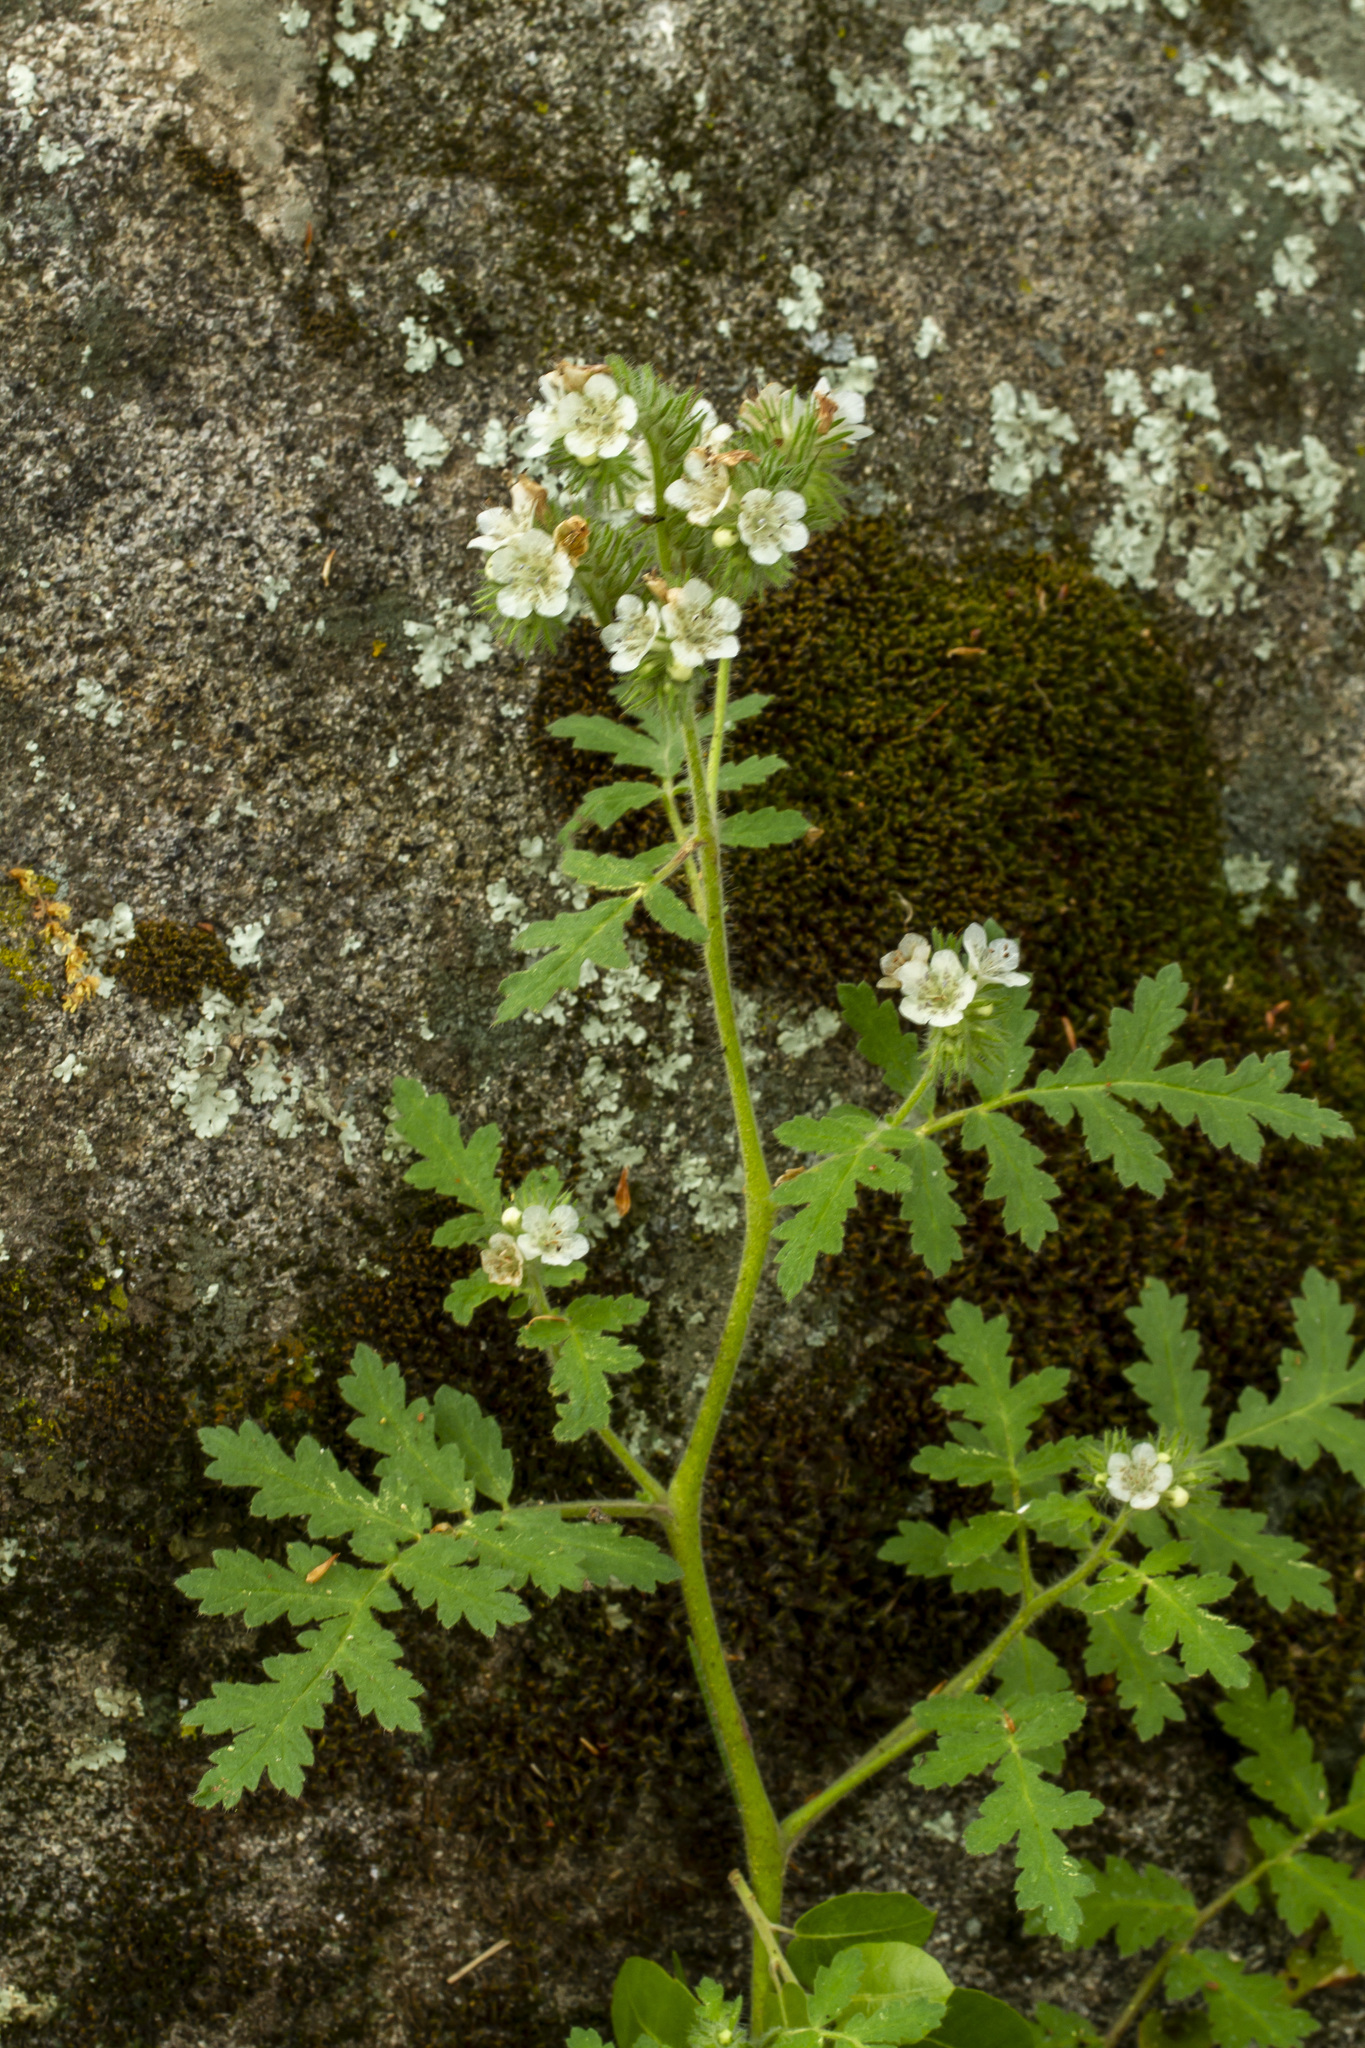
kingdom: Plantae
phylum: Tracheophyta
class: Magnoliopsida
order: Boraginales
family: Hydrophyllaceae
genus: Phacelia
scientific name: Phacelia cicutaria
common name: Caterpillar phacelia
